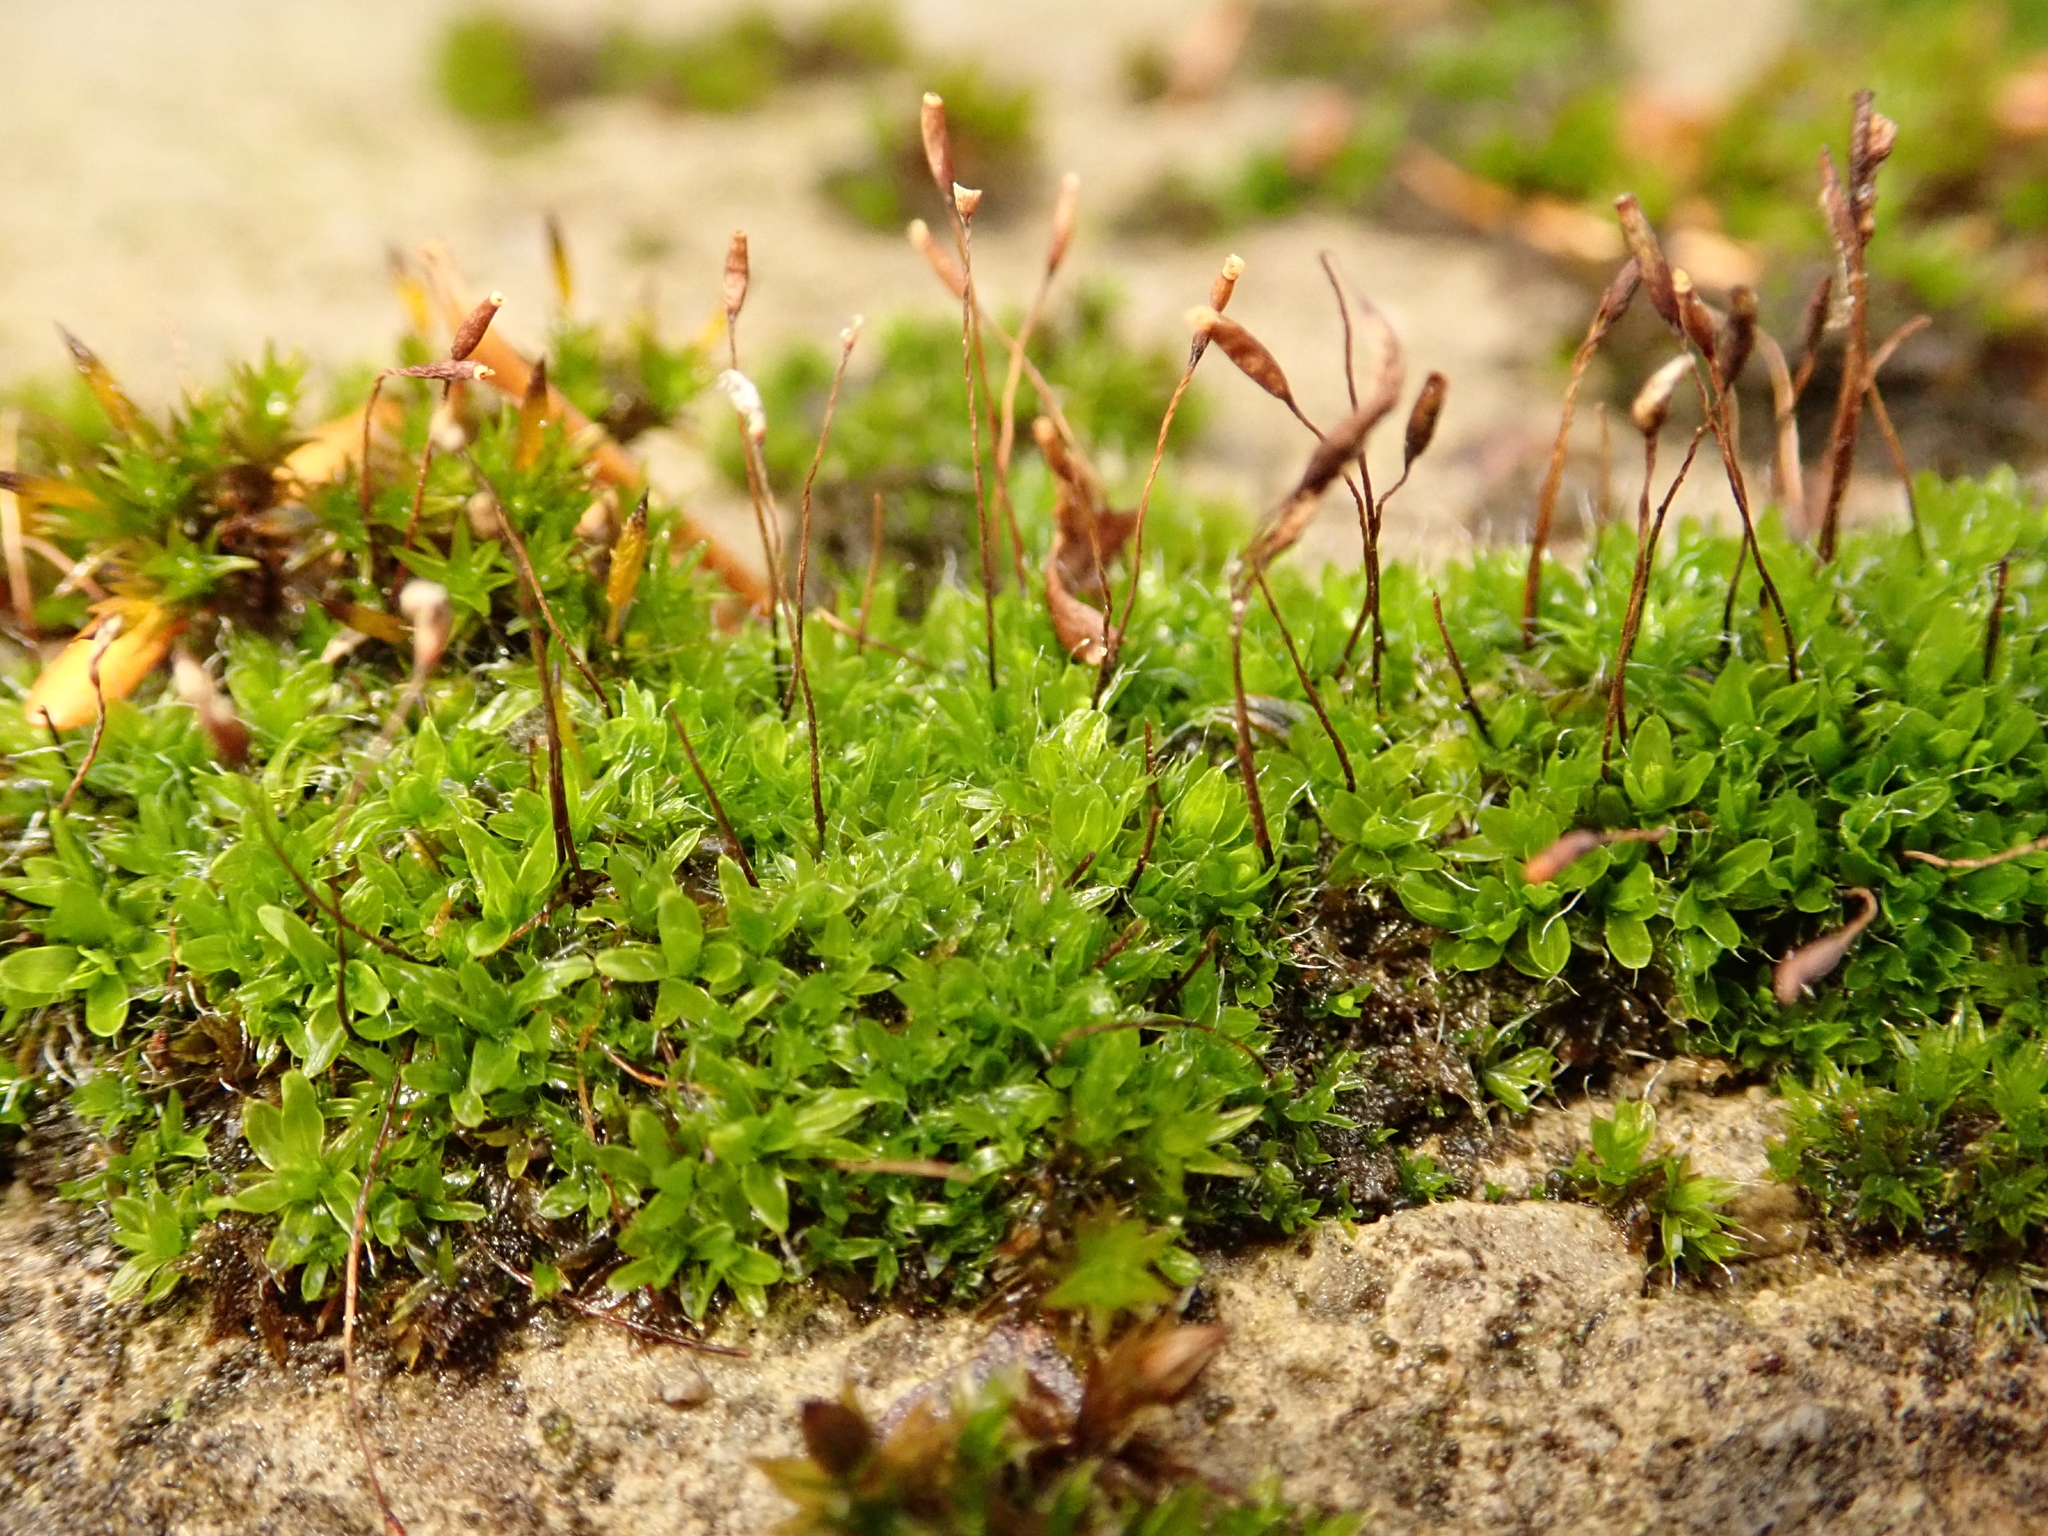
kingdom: Plantae
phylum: Bryophyta
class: Bryopsida
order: Pottiales
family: Pottiaceae
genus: Tortula
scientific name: Tortula muralis
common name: Wall screw-moss
